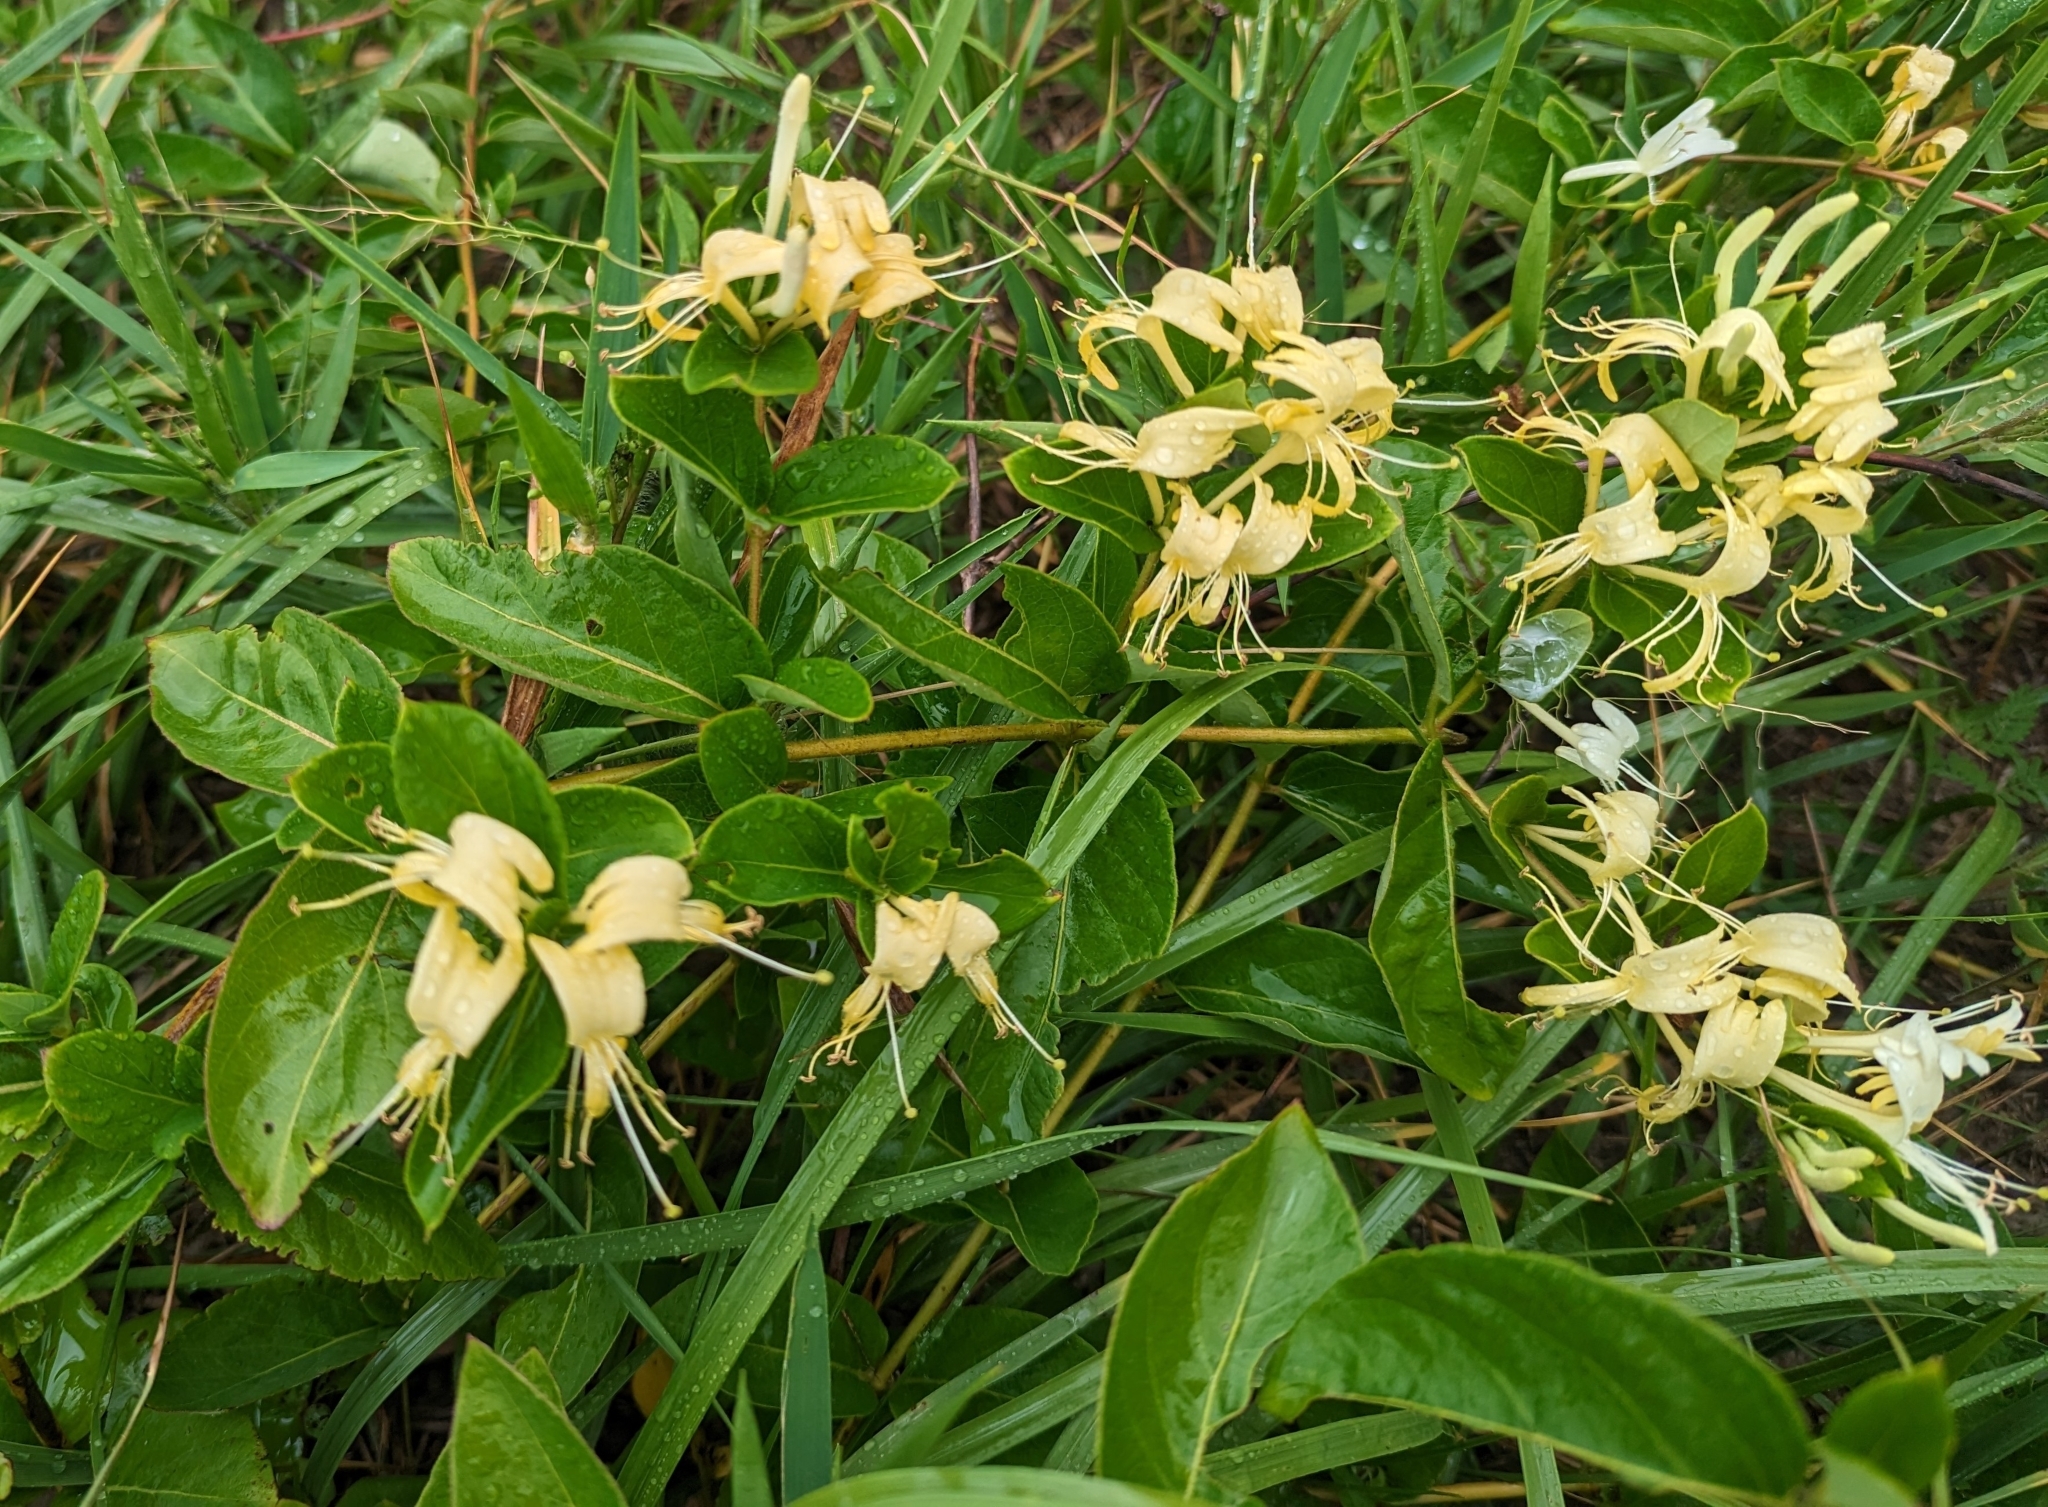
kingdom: Plantae
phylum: Tracheophyta
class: Magnoliopsida
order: Dipsacales
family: Caprifoliaceae
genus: Lonicera
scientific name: Lonicera japonica
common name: Japanese honeysuckle
